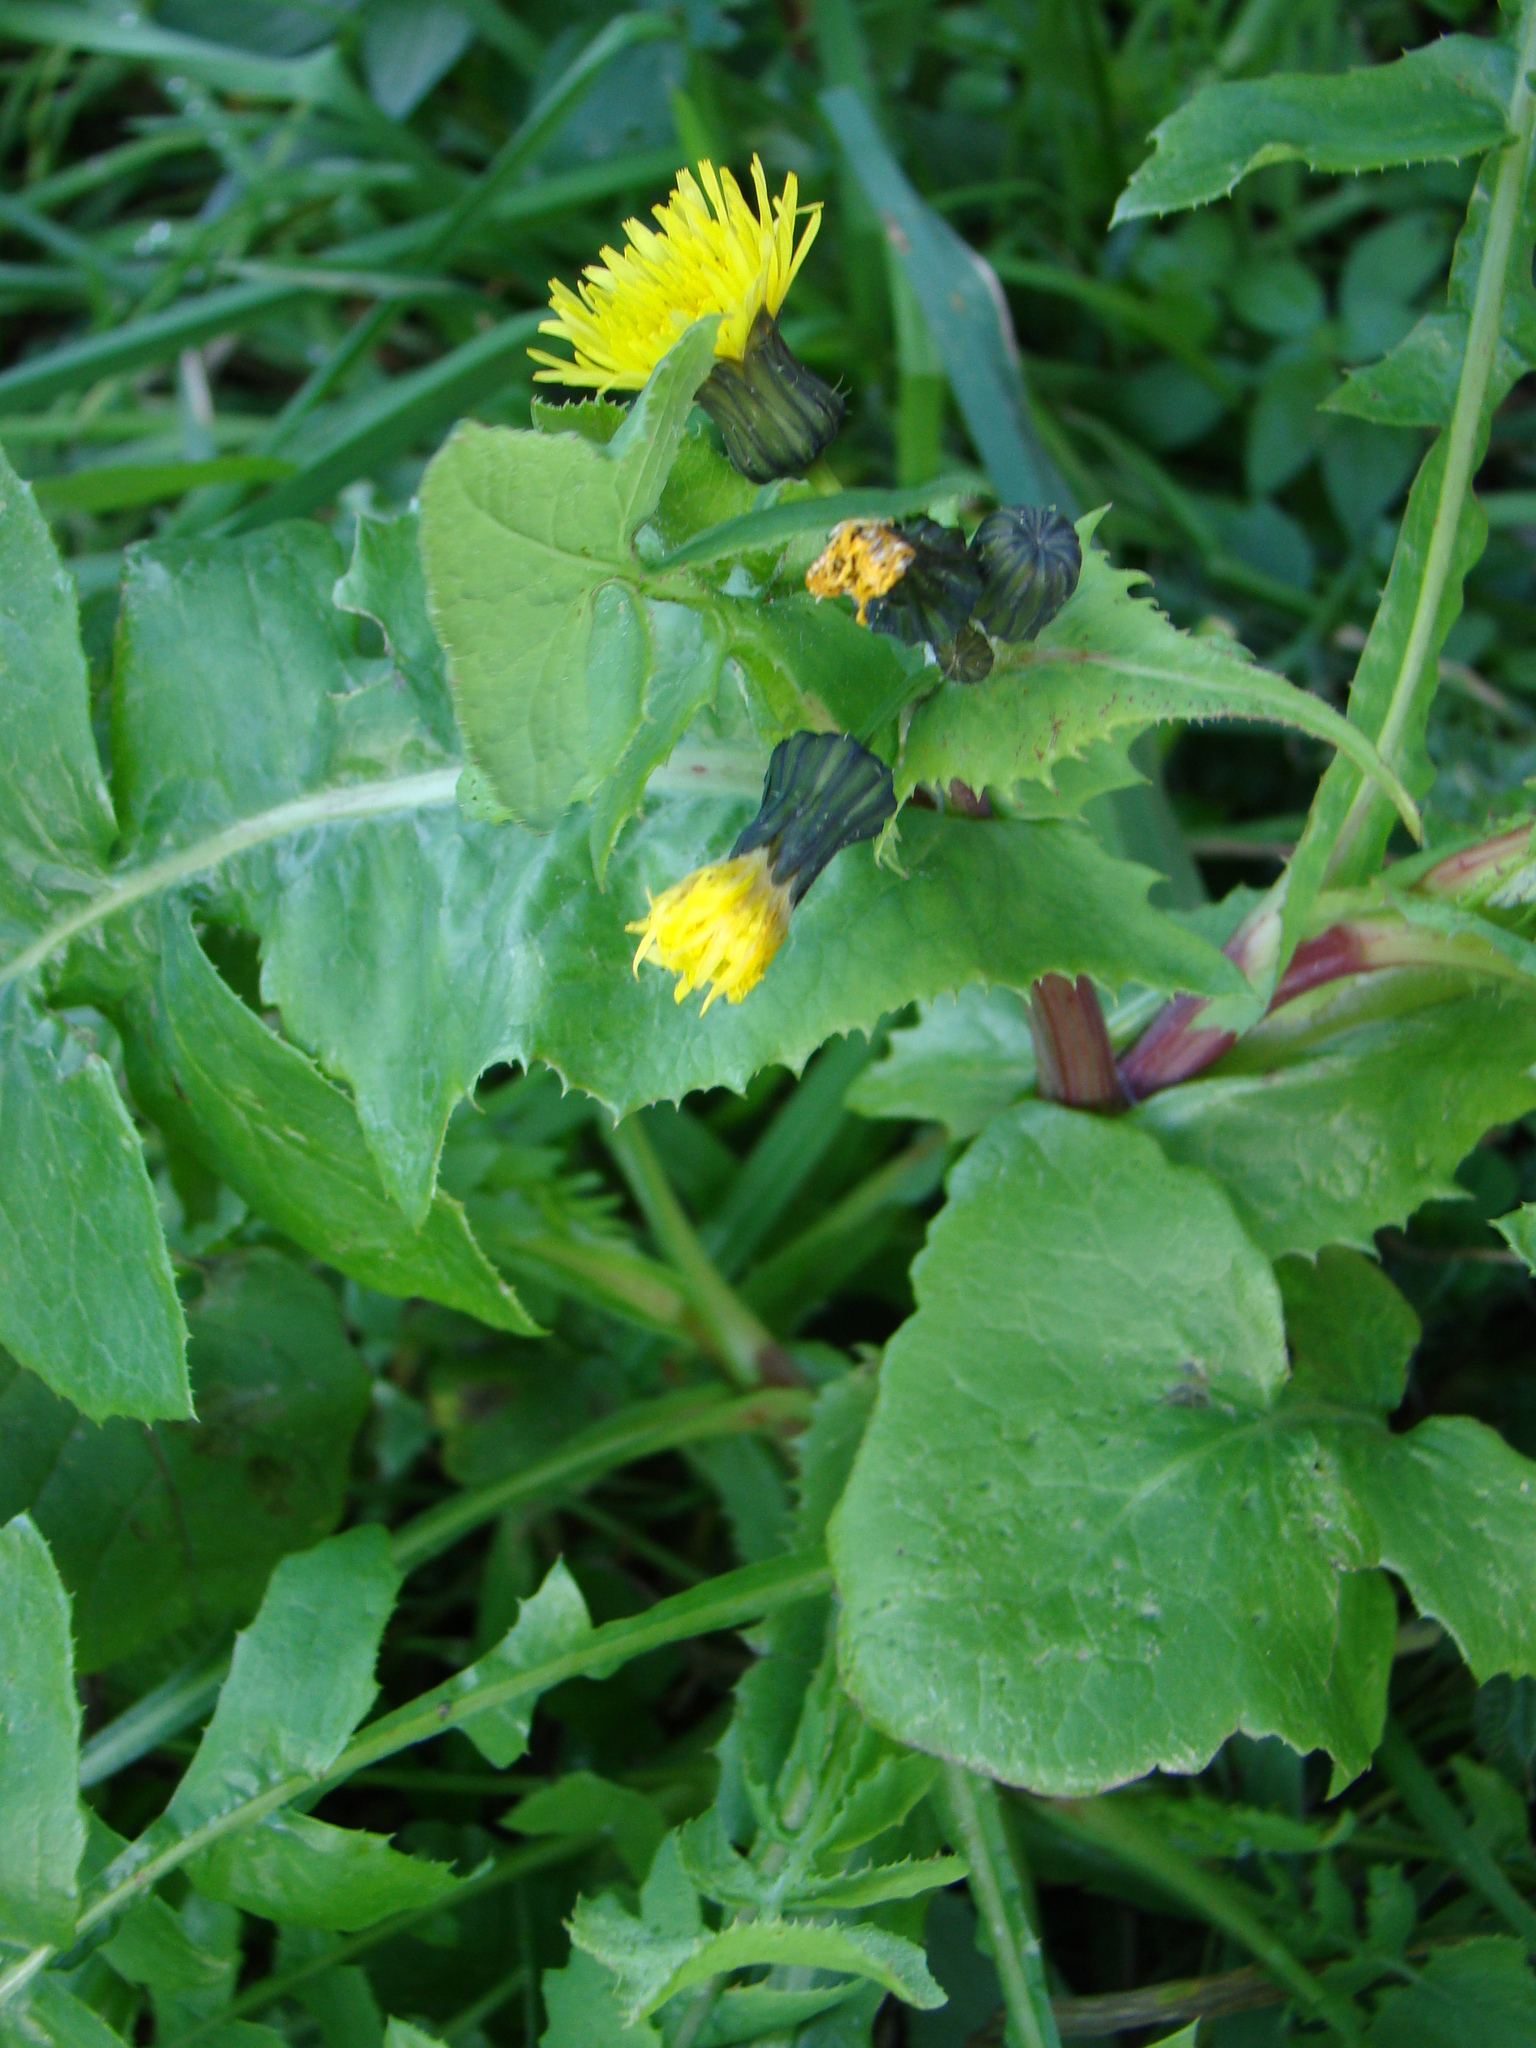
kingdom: Plantae
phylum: Tracheophyta
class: Magnoliopsida
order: Asterales
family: Asteraceae
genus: Sonchus
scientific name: Sonchus oleraceus
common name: Common sowthistle
